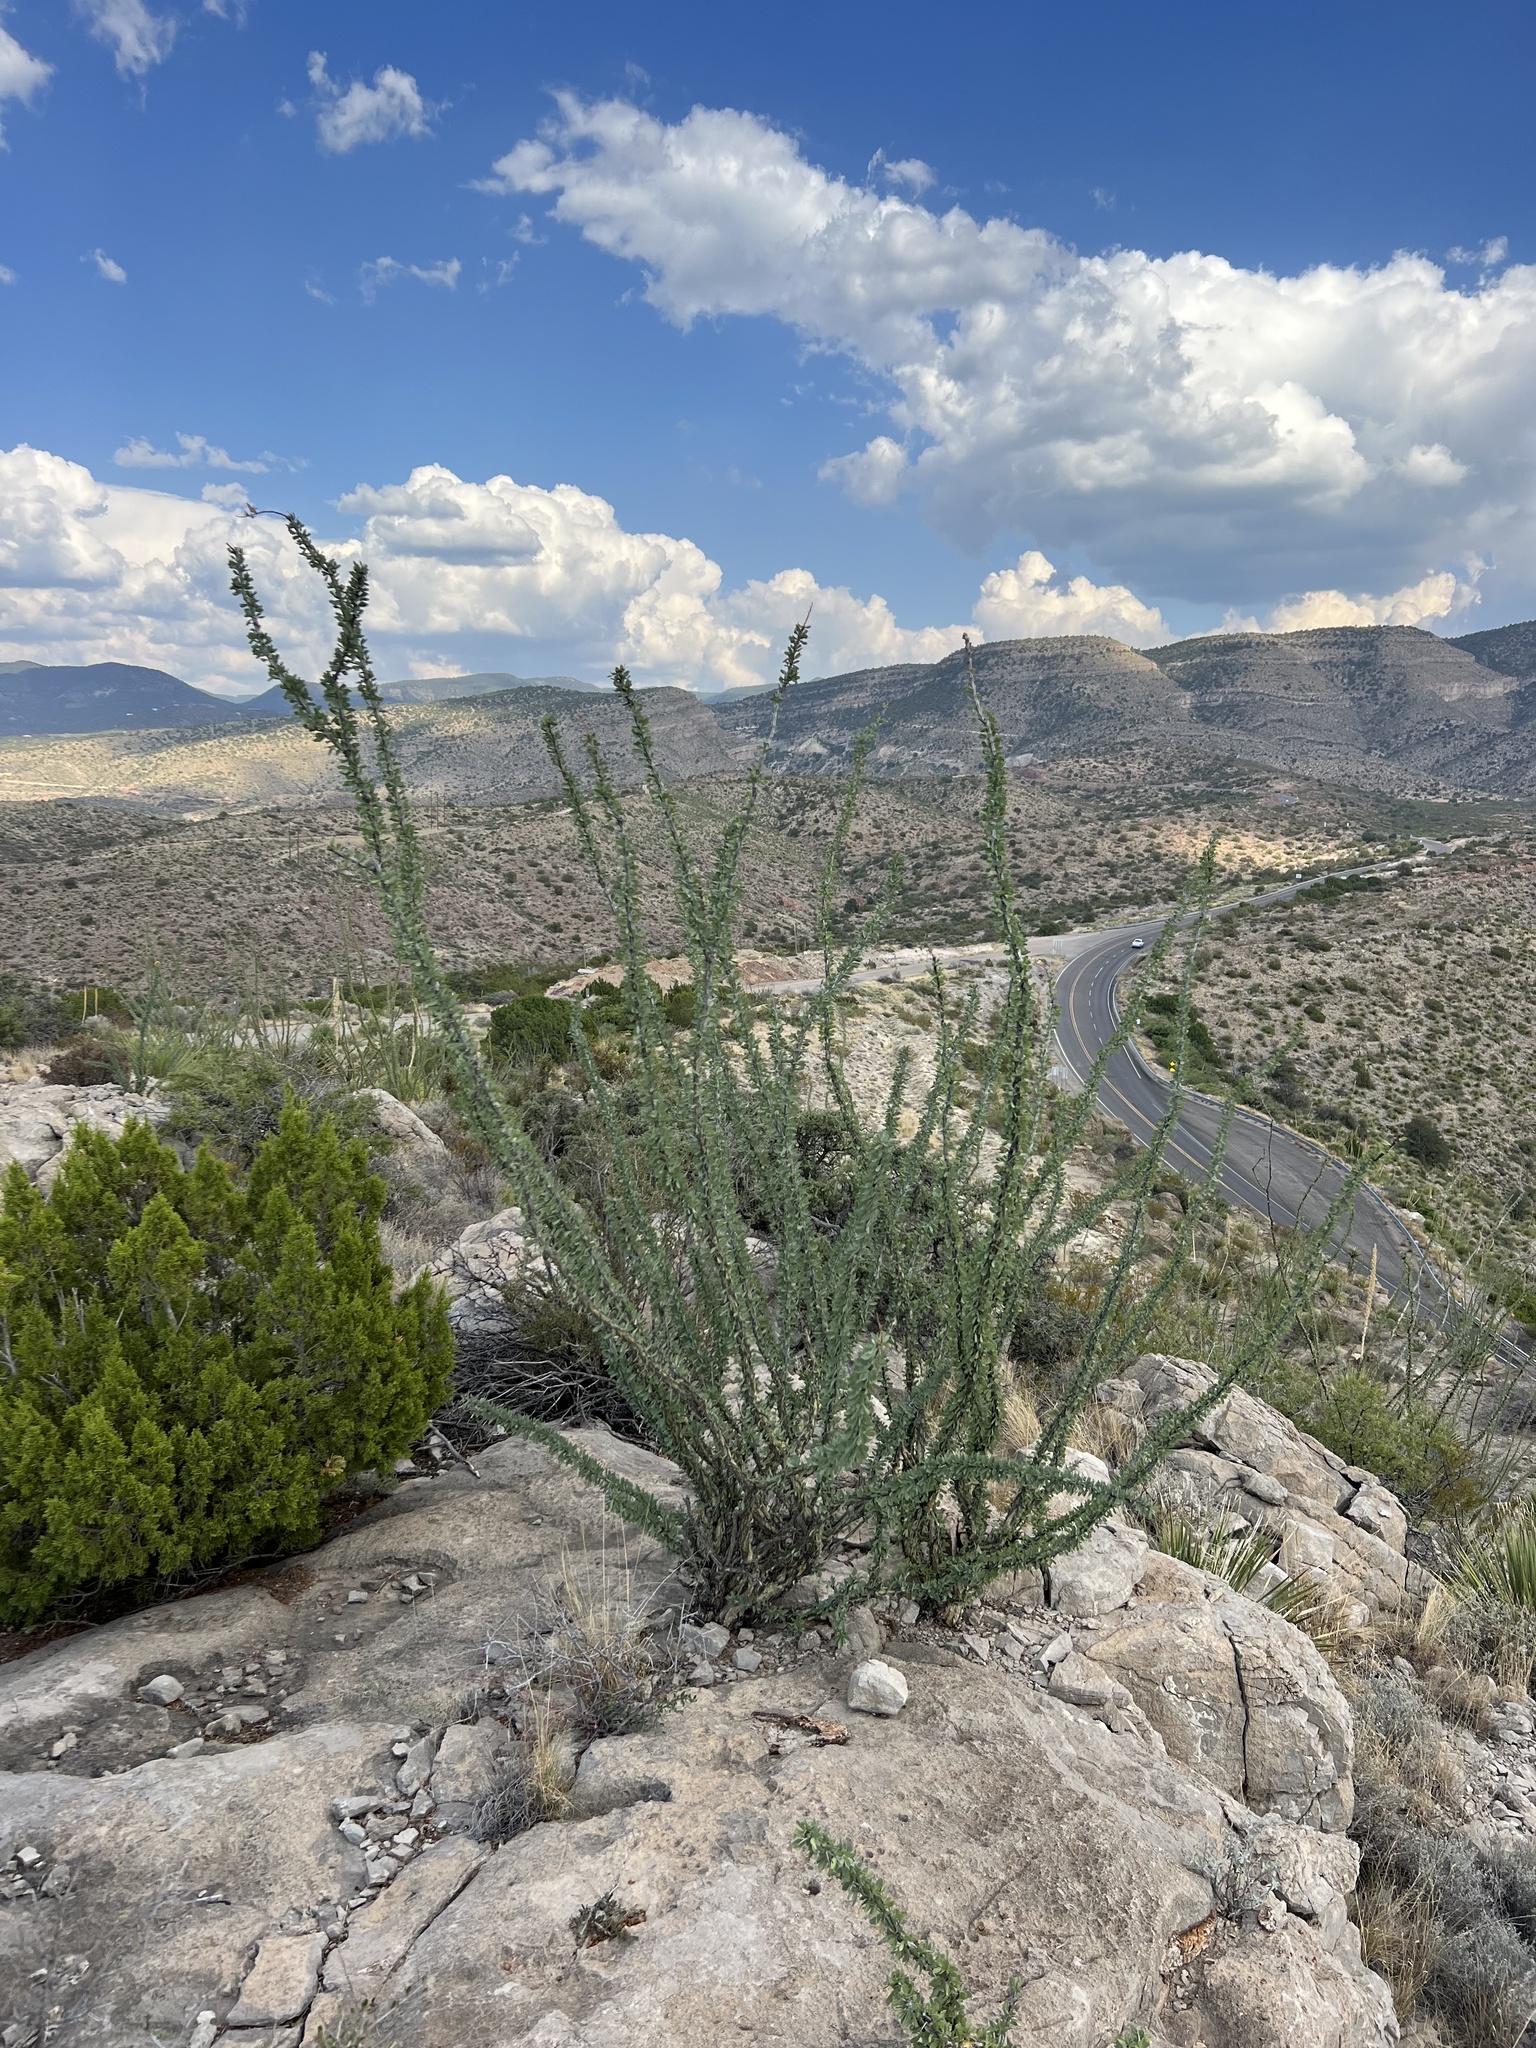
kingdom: Plantae
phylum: Tracheophyta
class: Magnoliopsida
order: Ericales
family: Fouquieriaceae
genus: Fouquieria
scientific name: Fouquieria splendens
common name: Vine-cactus
